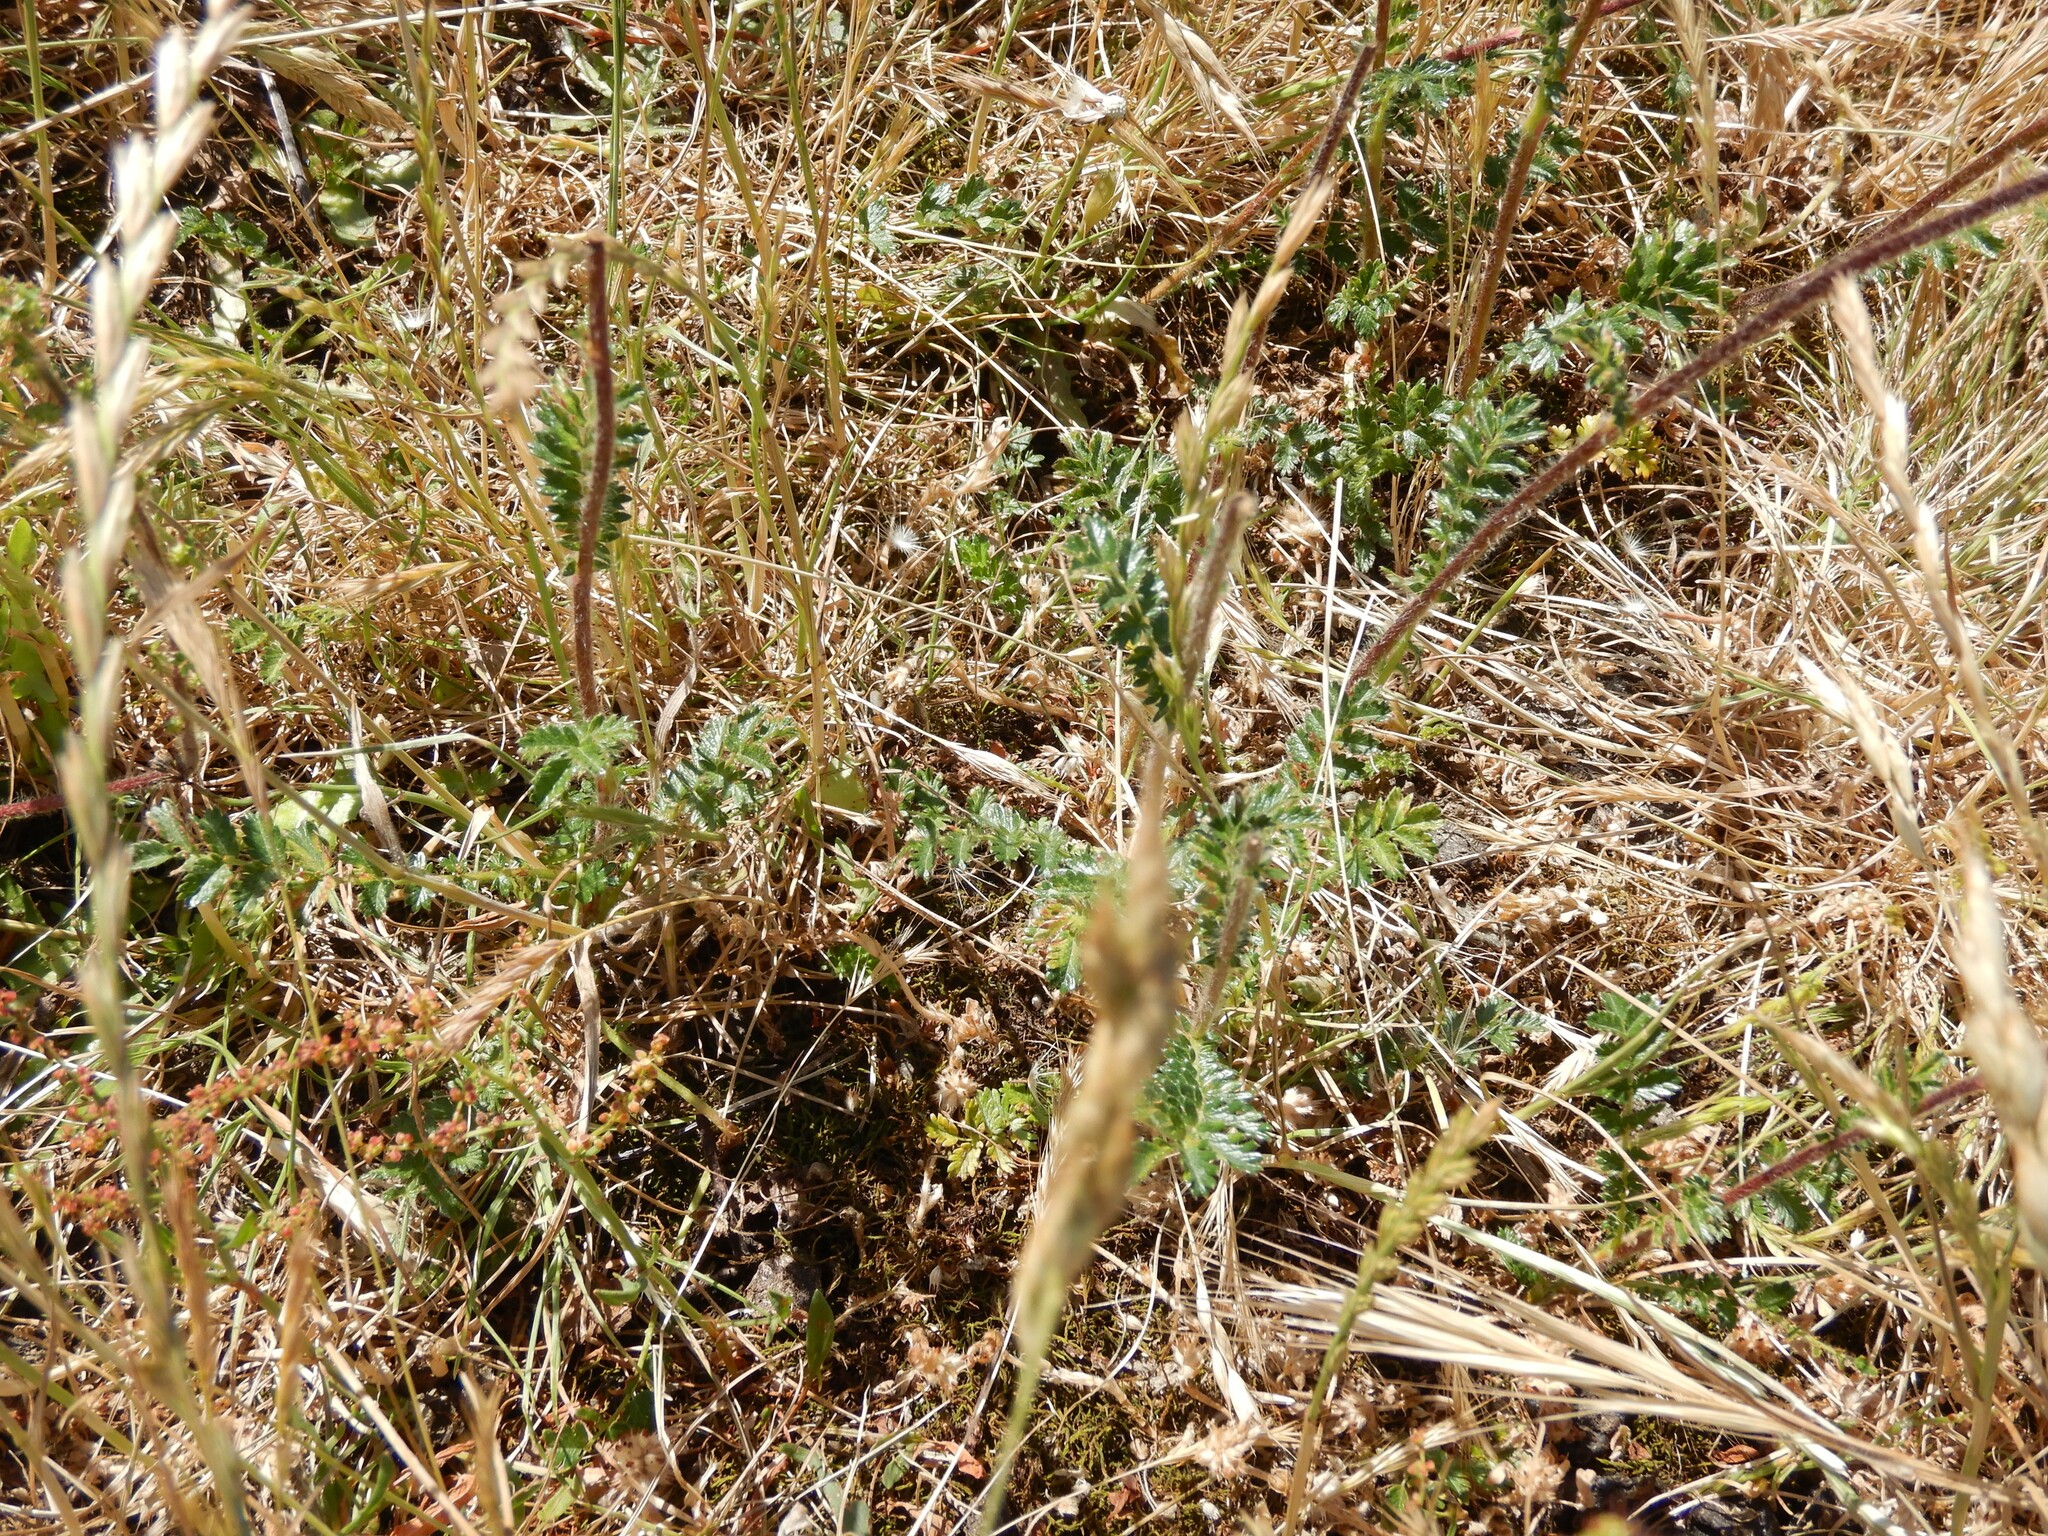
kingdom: Plantae
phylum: Tracheophyta
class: Magnoliopsida
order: Rosales
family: Rosaceae
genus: Acaena
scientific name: Acaena agnipila
